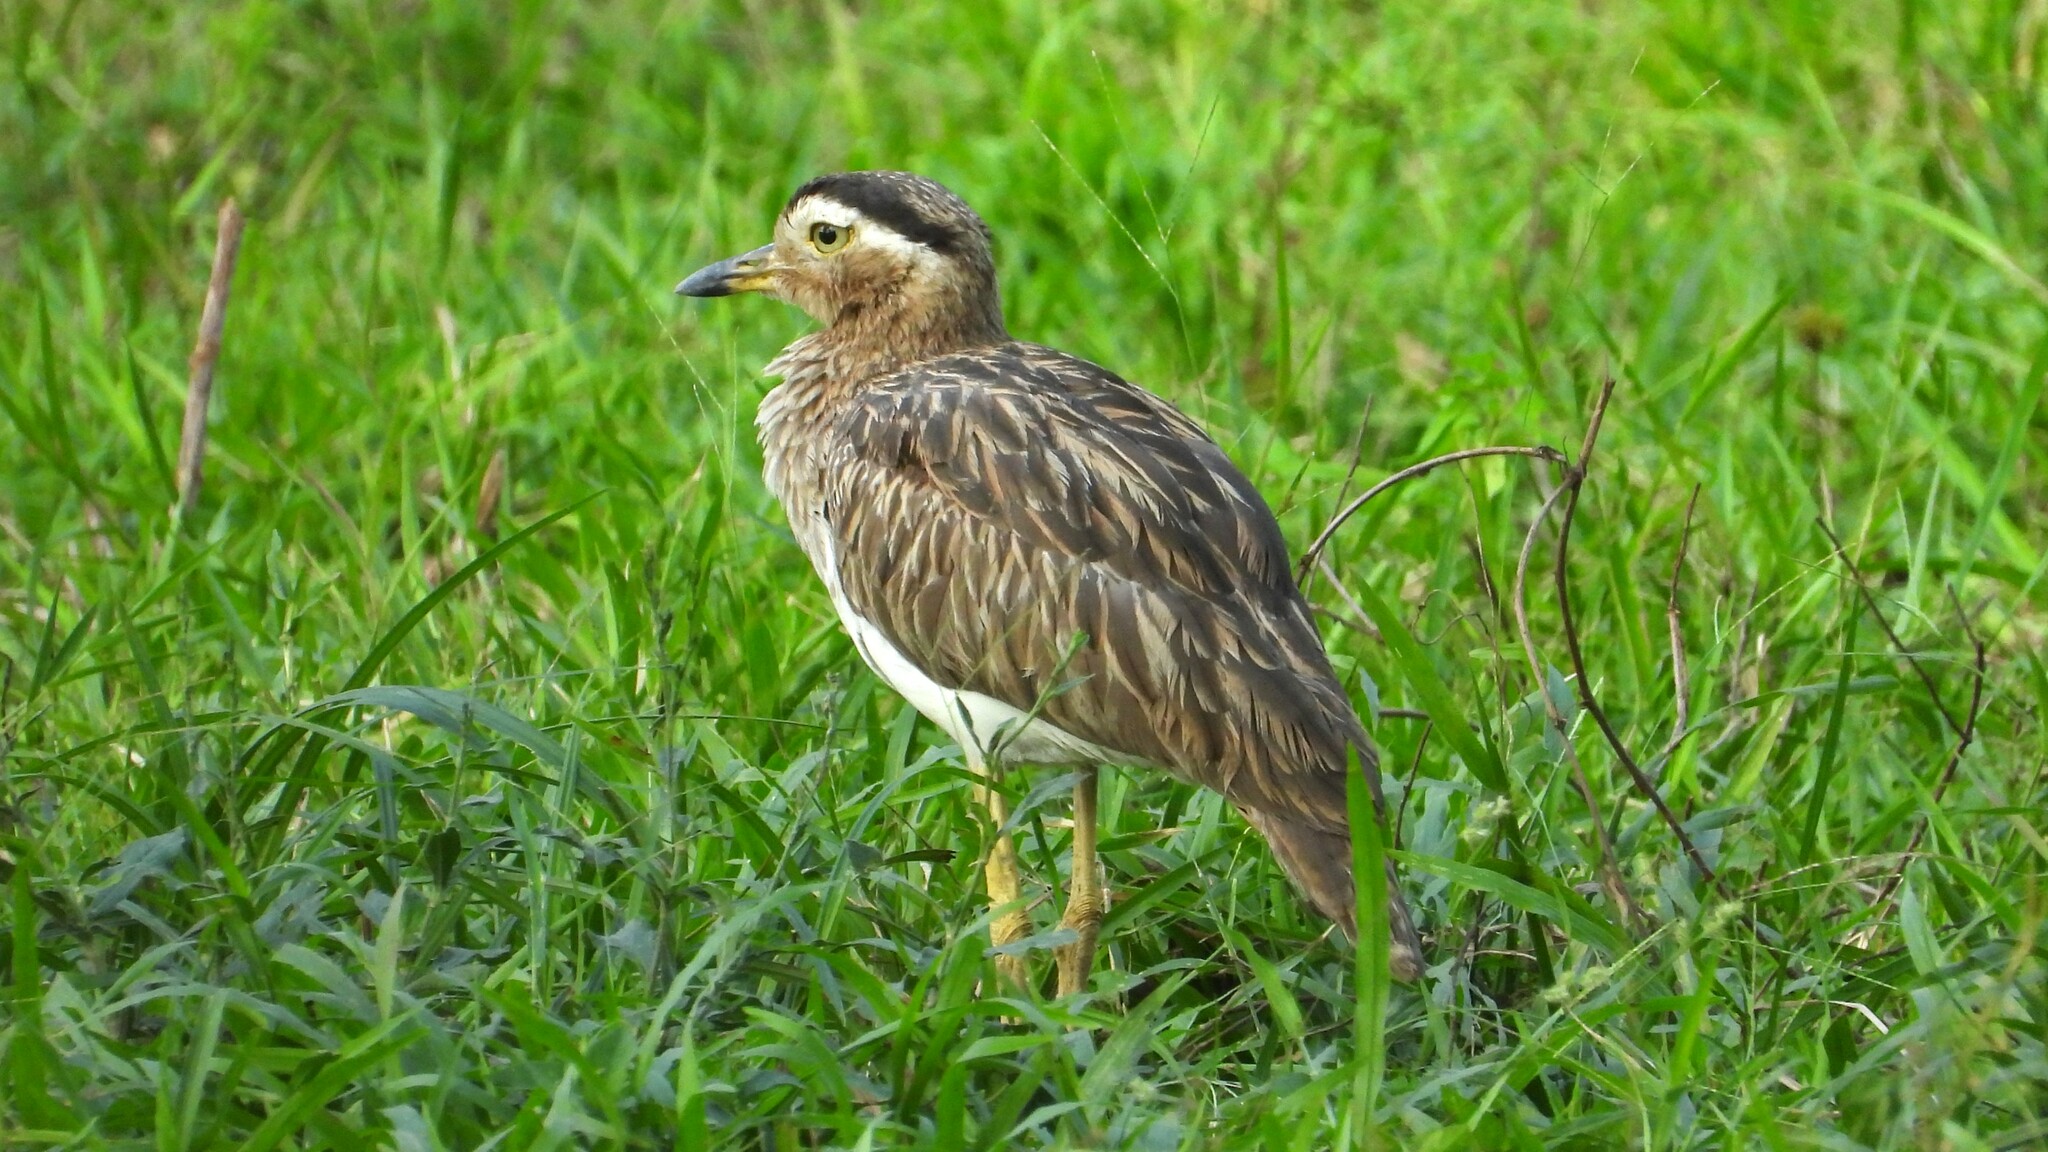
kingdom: Animalia
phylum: Chordata
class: Aves
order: Charadriiformes
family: Burhinidae
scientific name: Burhinidae
